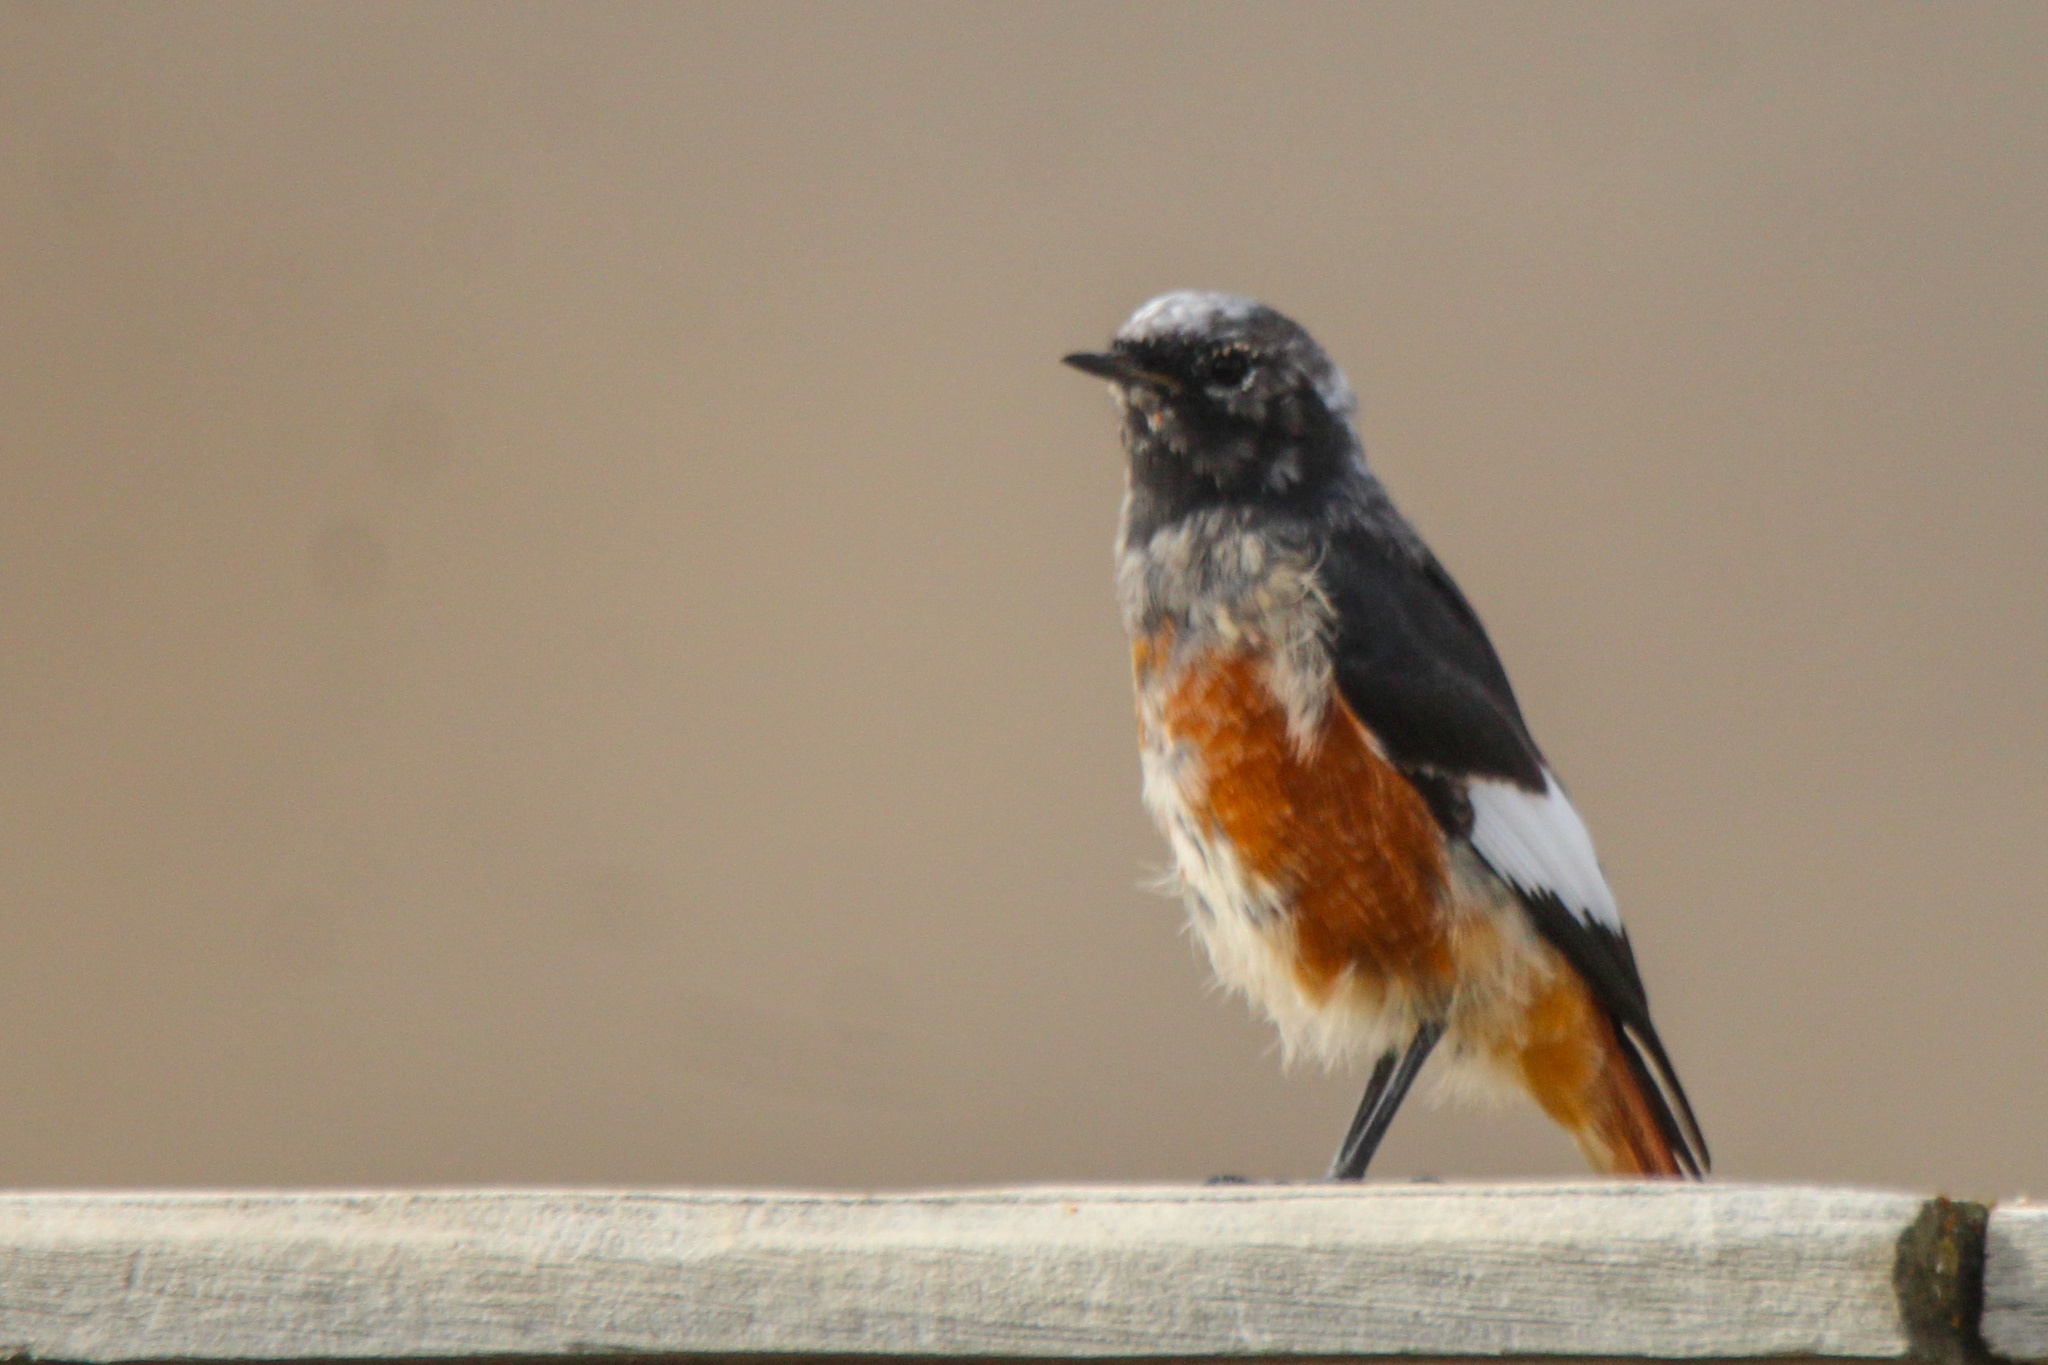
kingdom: Animalia
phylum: Chordata
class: Aves
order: Passeriformes
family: Muscicapidae
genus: Phoenicurus
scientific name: Phoenicurus erythrogastrus
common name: Güldenstädt's redstart
